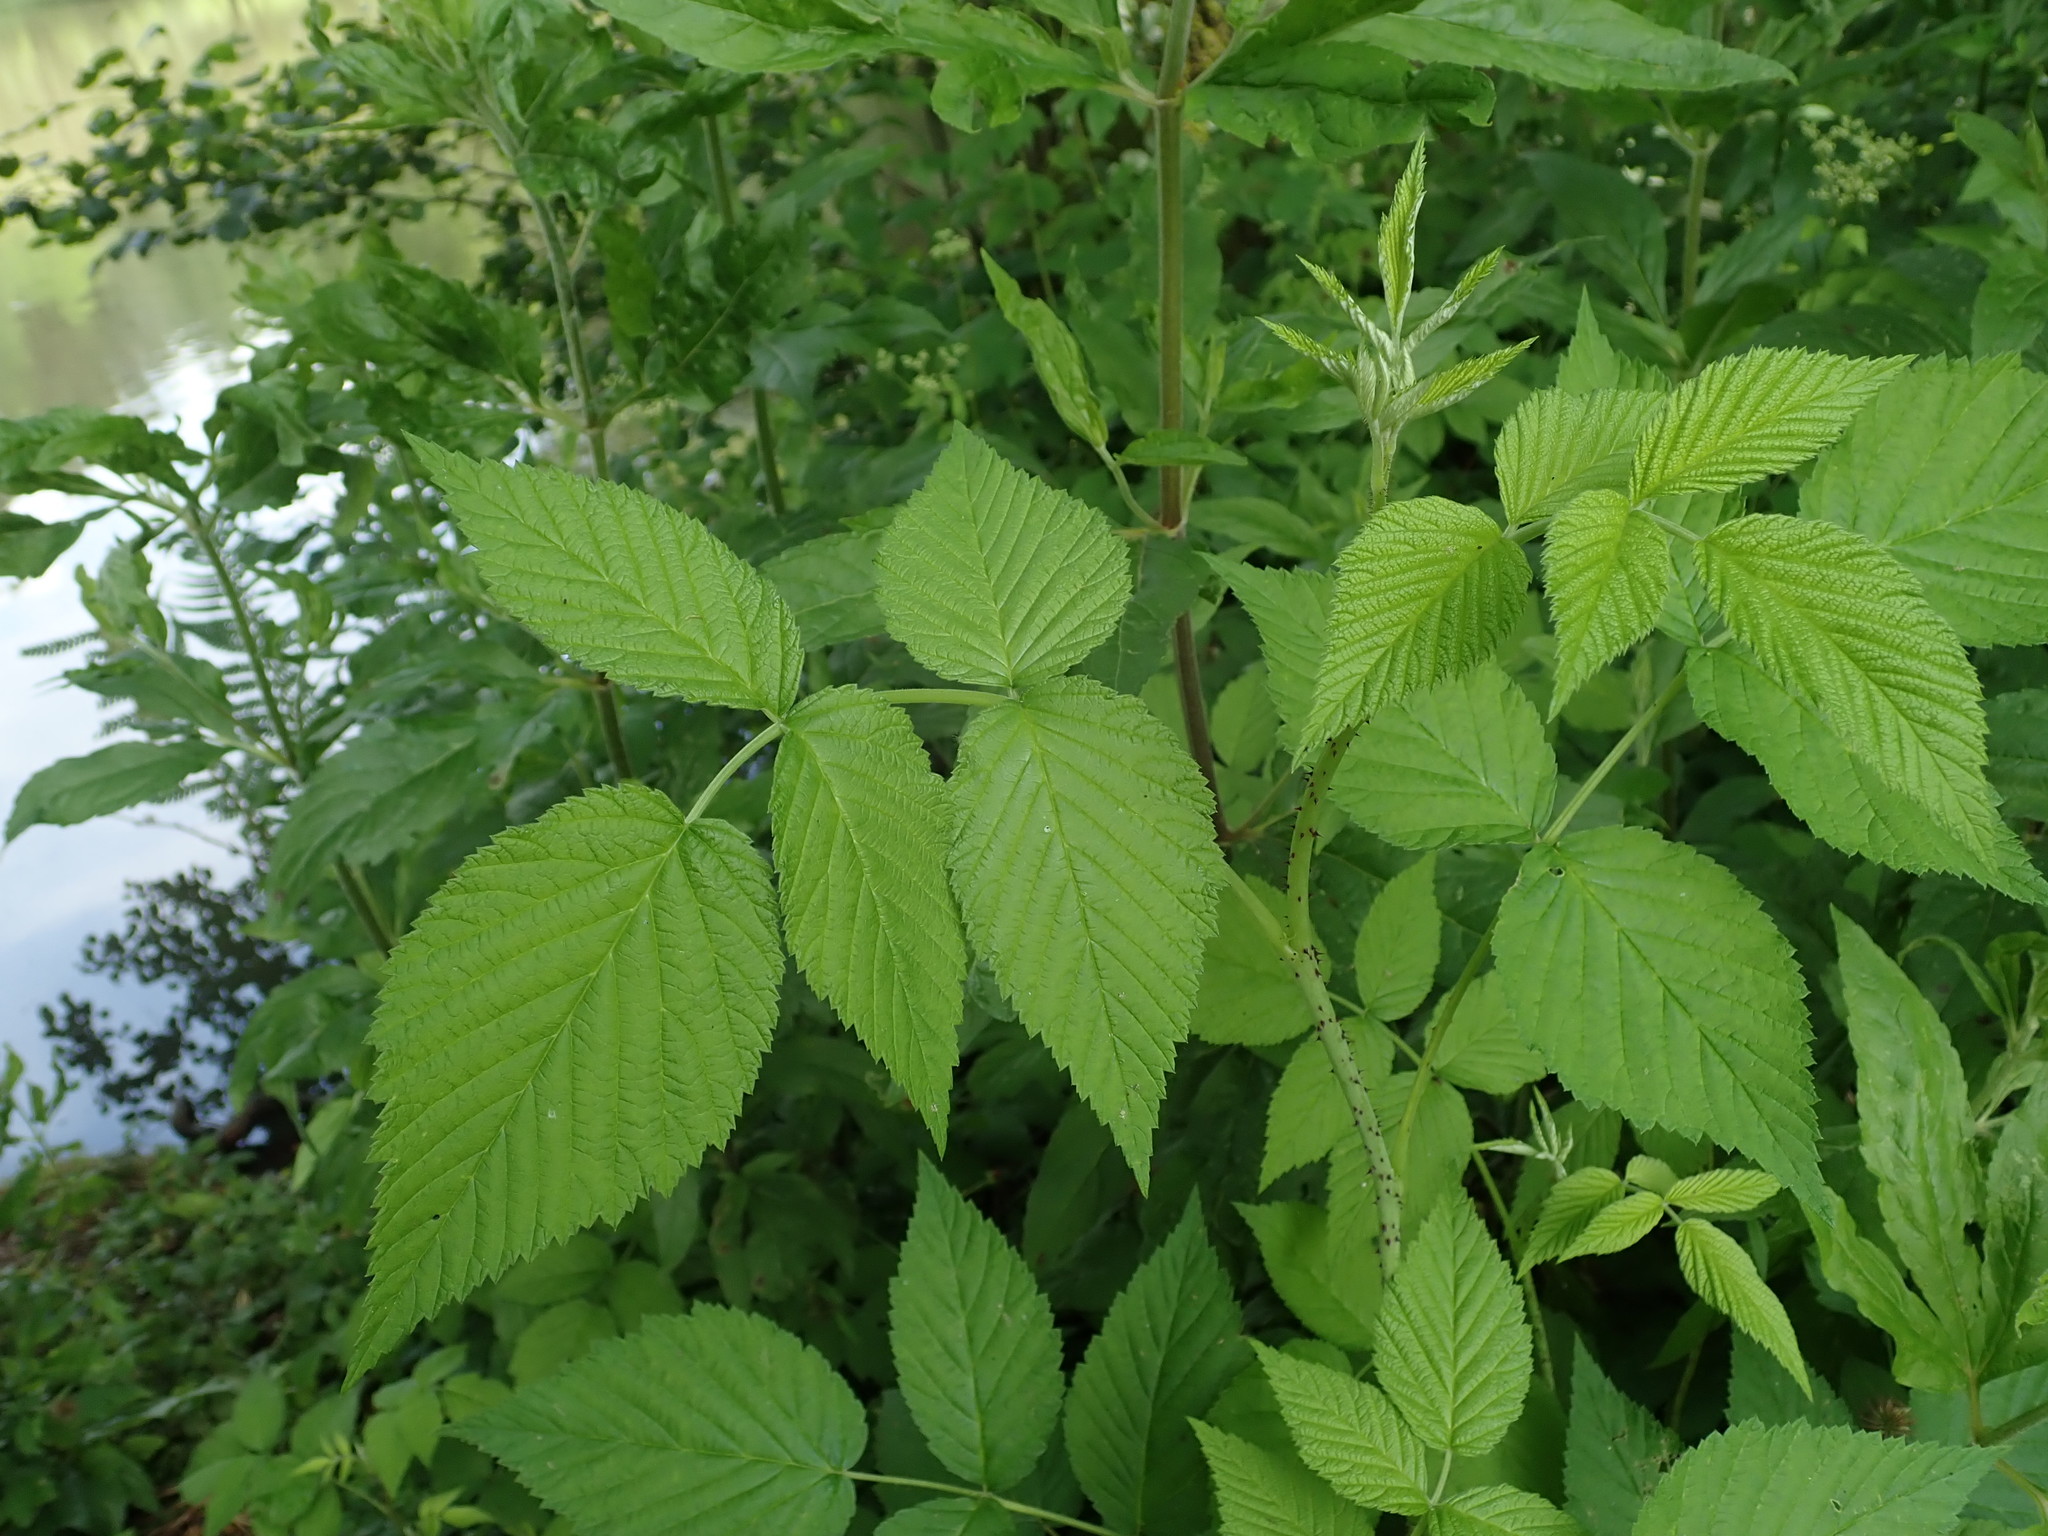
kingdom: Plantae
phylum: Tracheophyta
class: Magnoliopsida
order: Rosales
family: Rosaceae
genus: Rubus
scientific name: Rubus idaeus
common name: Raspberry
